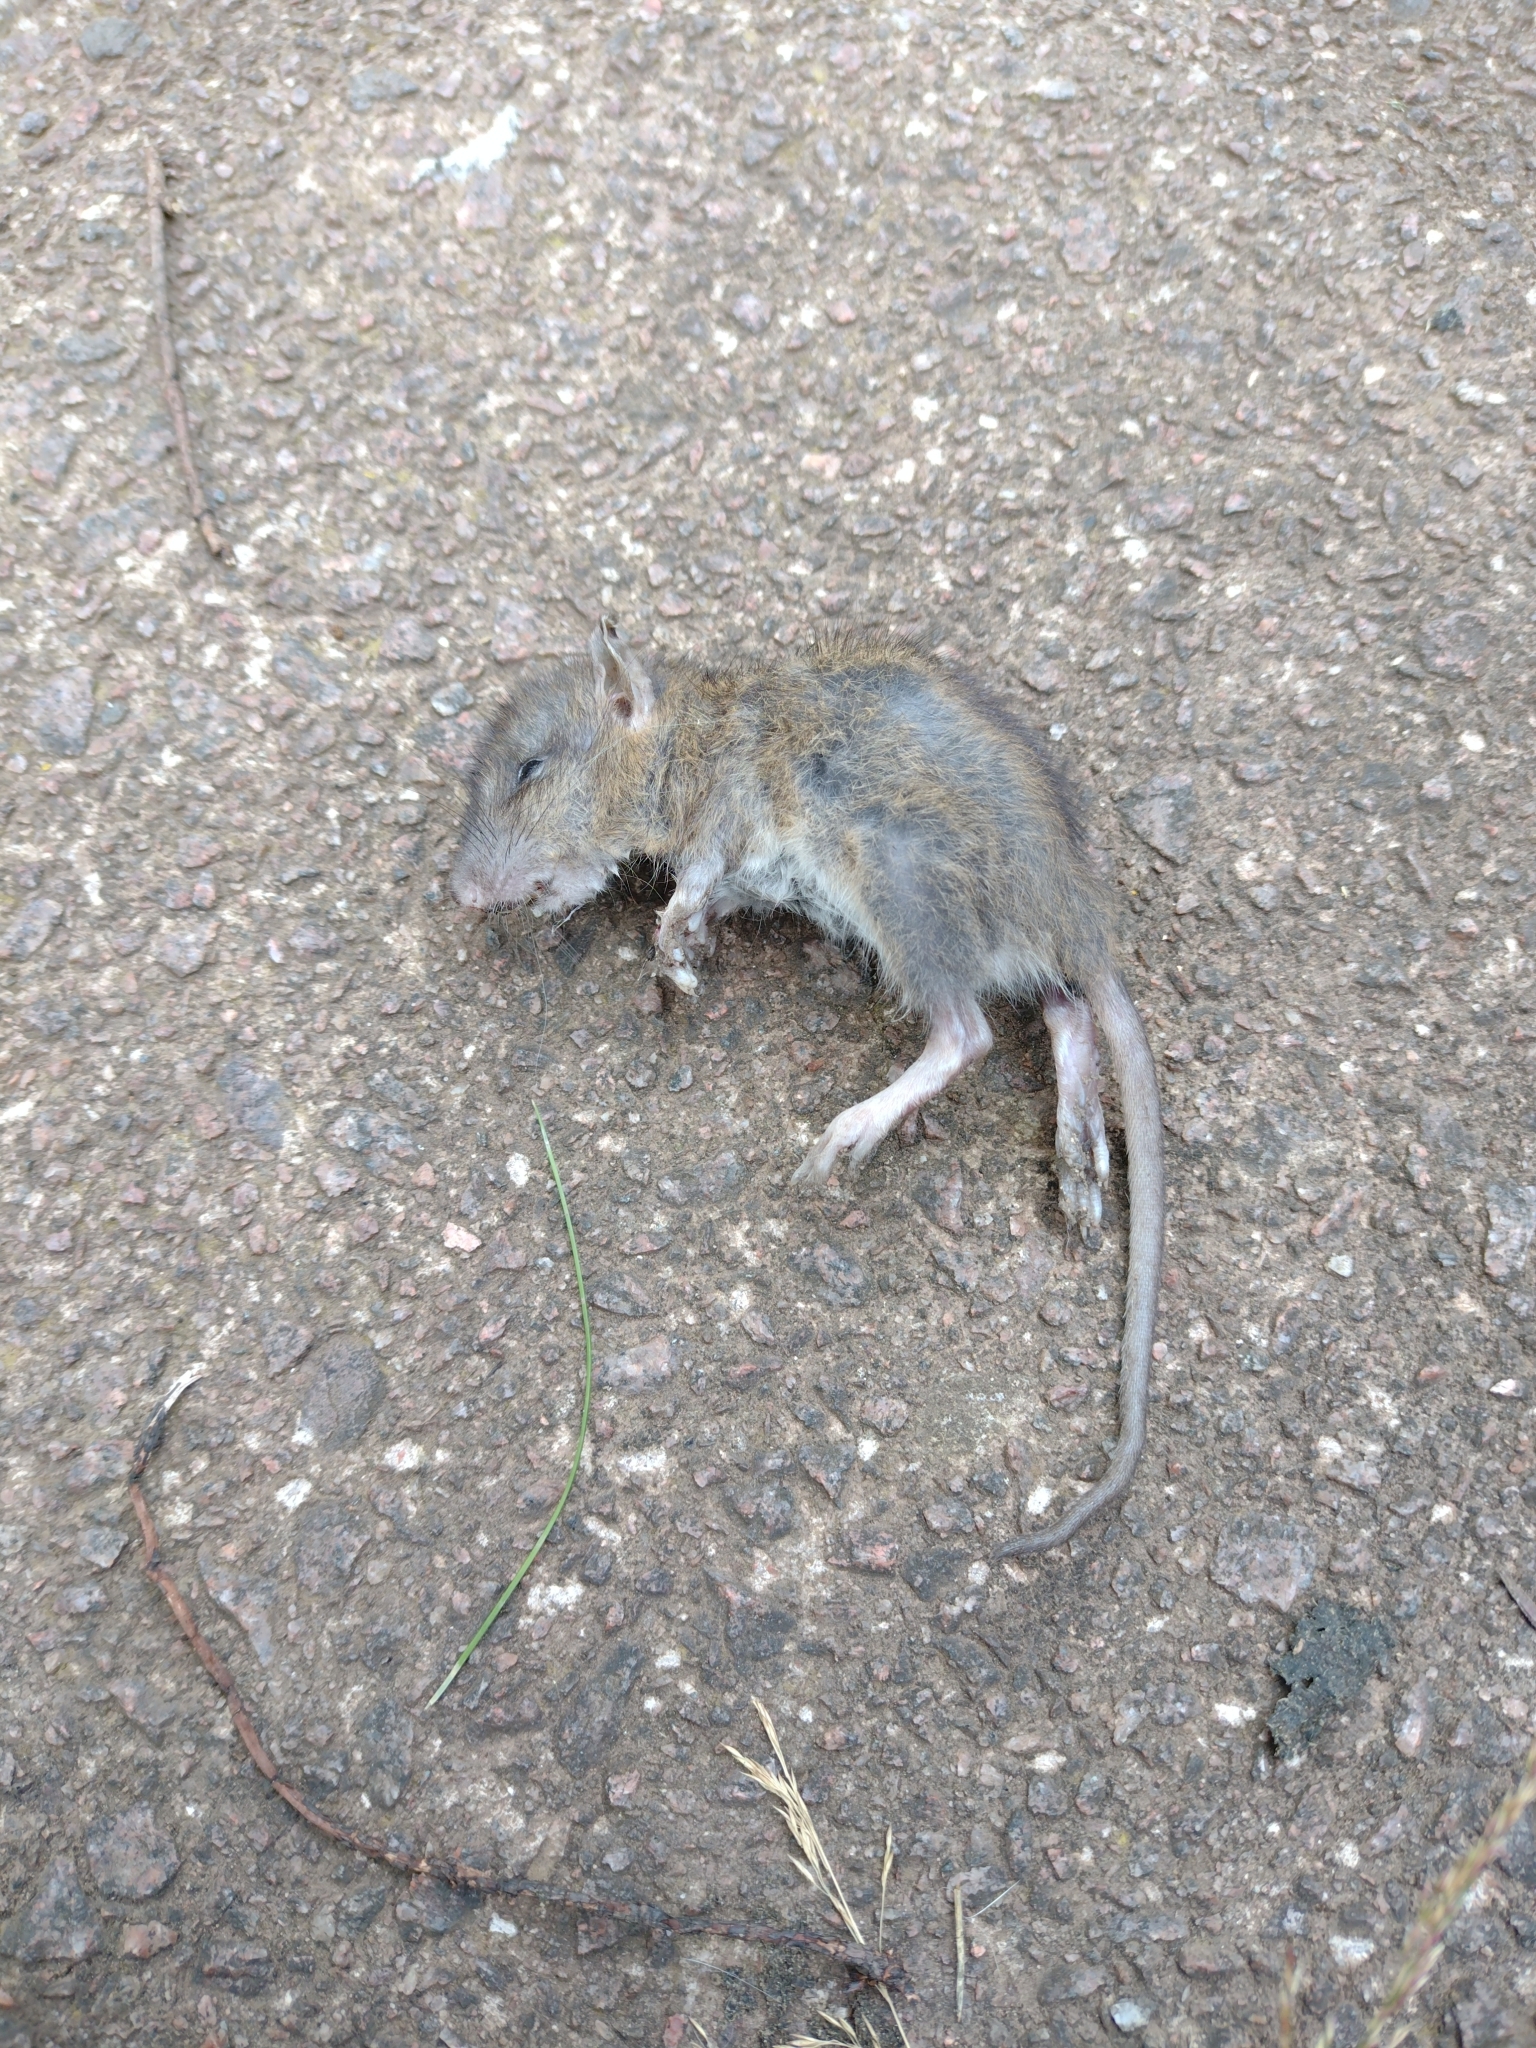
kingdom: Animalia
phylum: Chordata
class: Mammalia
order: Rodentia
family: Muridae
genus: Mus
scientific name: Mus musculus
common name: House mouse
